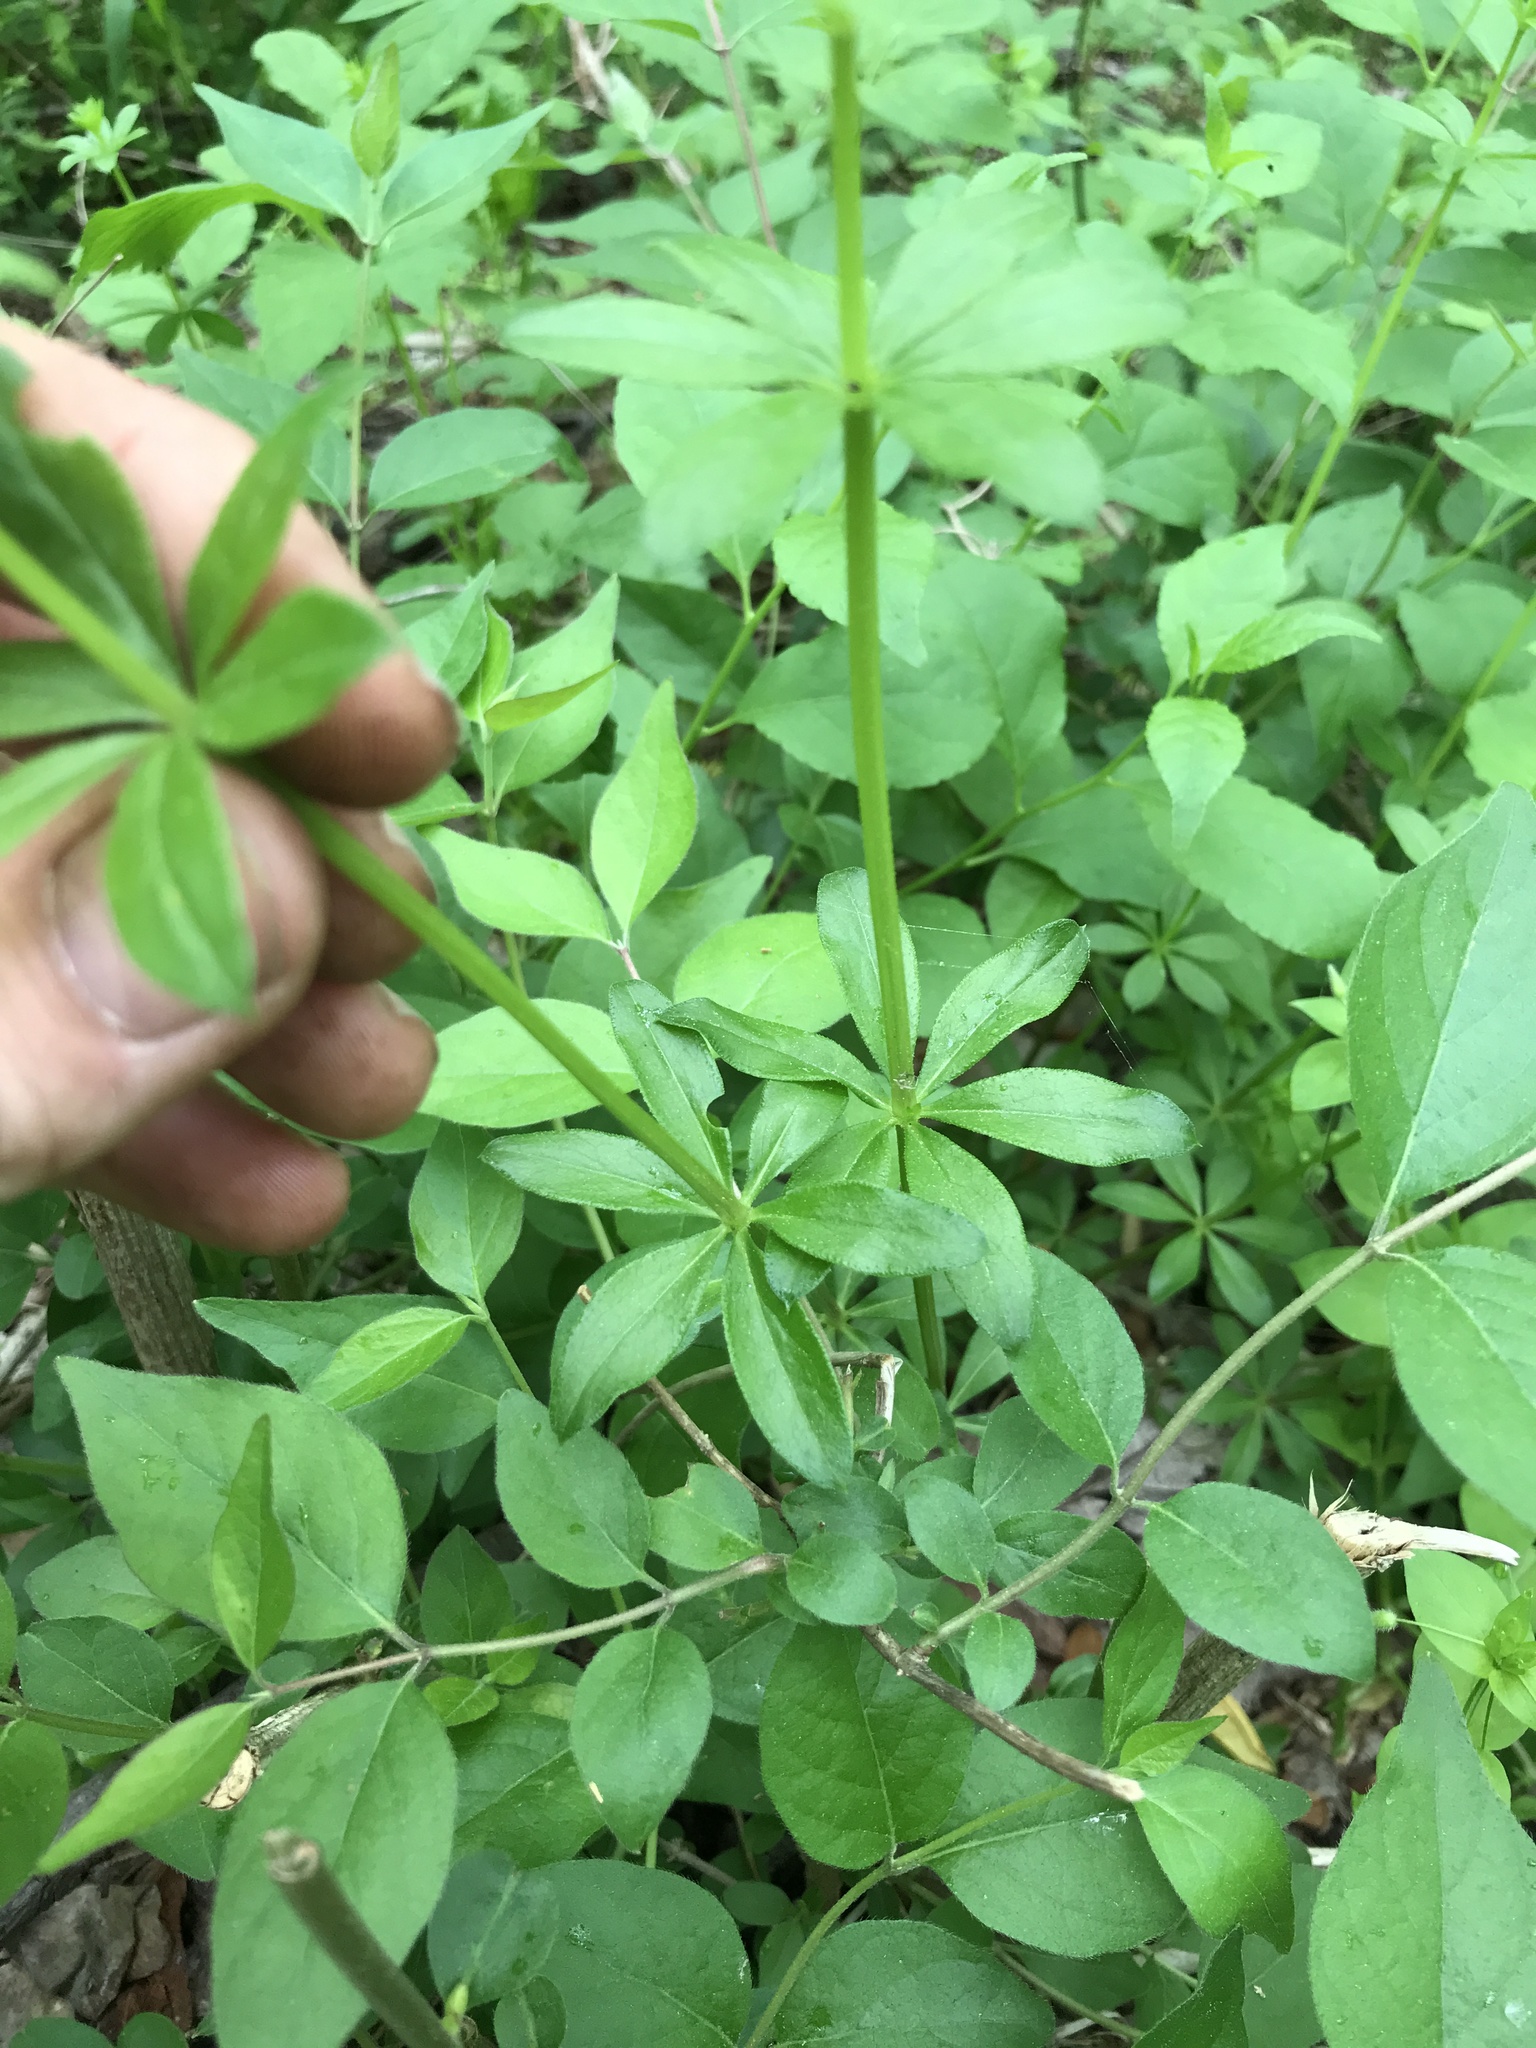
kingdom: Plantae
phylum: Tracheophyta
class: Magnoliopsida
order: Gentianales
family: Rubiaceae
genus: Galium
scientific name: Galium triflorum
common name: Fragrant bedstraw
